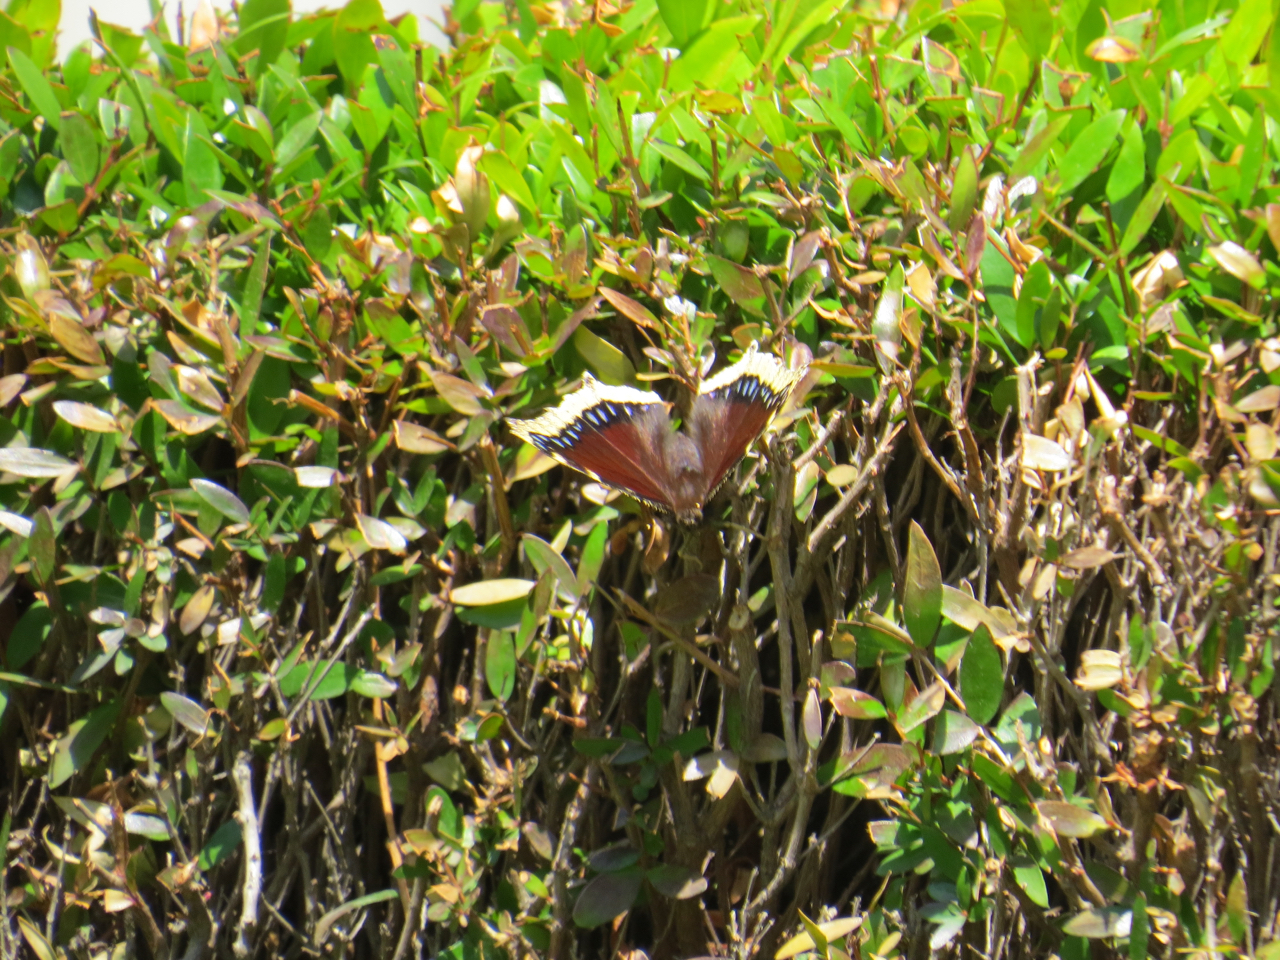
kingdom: Animalia
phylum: Arthropoda
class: Insecta
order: Lepidoptera
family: Nymphalidae
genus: Nymphalis
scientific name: Nymphalis antiopa
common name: Camberwell beauty
